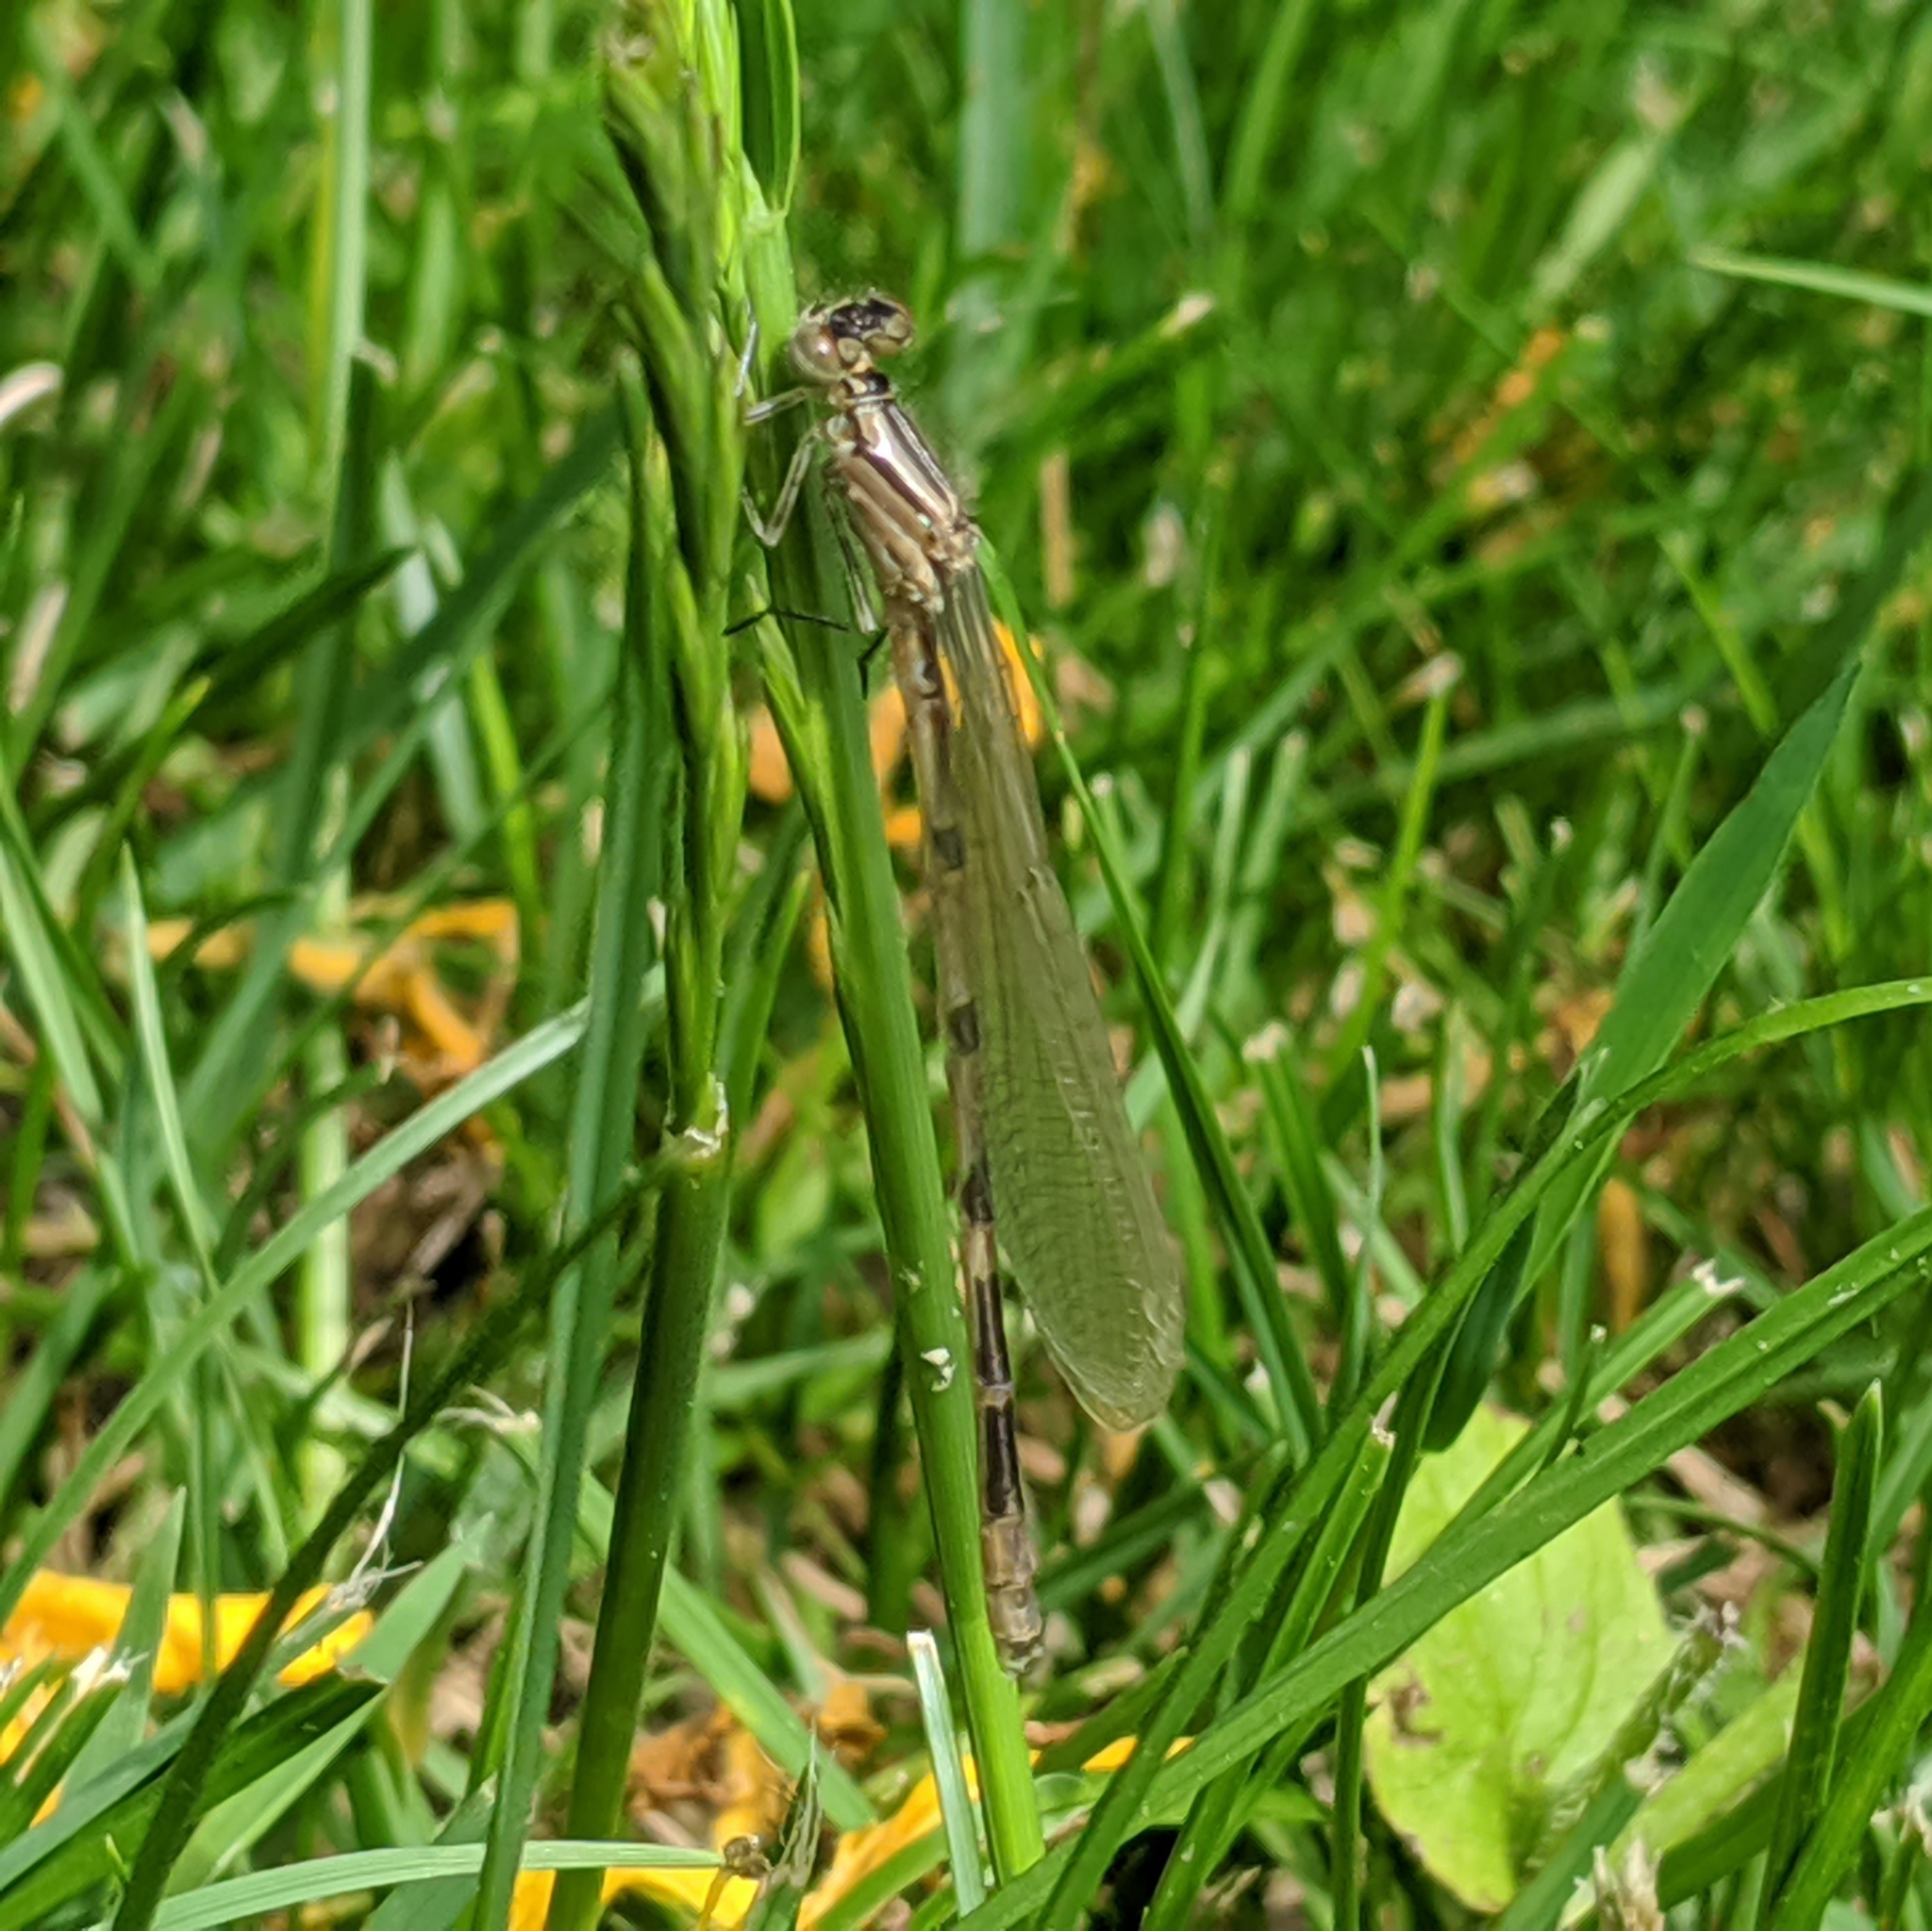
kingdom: Animalia
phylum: Arthropoda
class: Insecta
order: Odonata
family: Coenagrionidae
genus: Enallagma
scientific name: Enallagma cyathigerum
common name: Common blue damselfly
